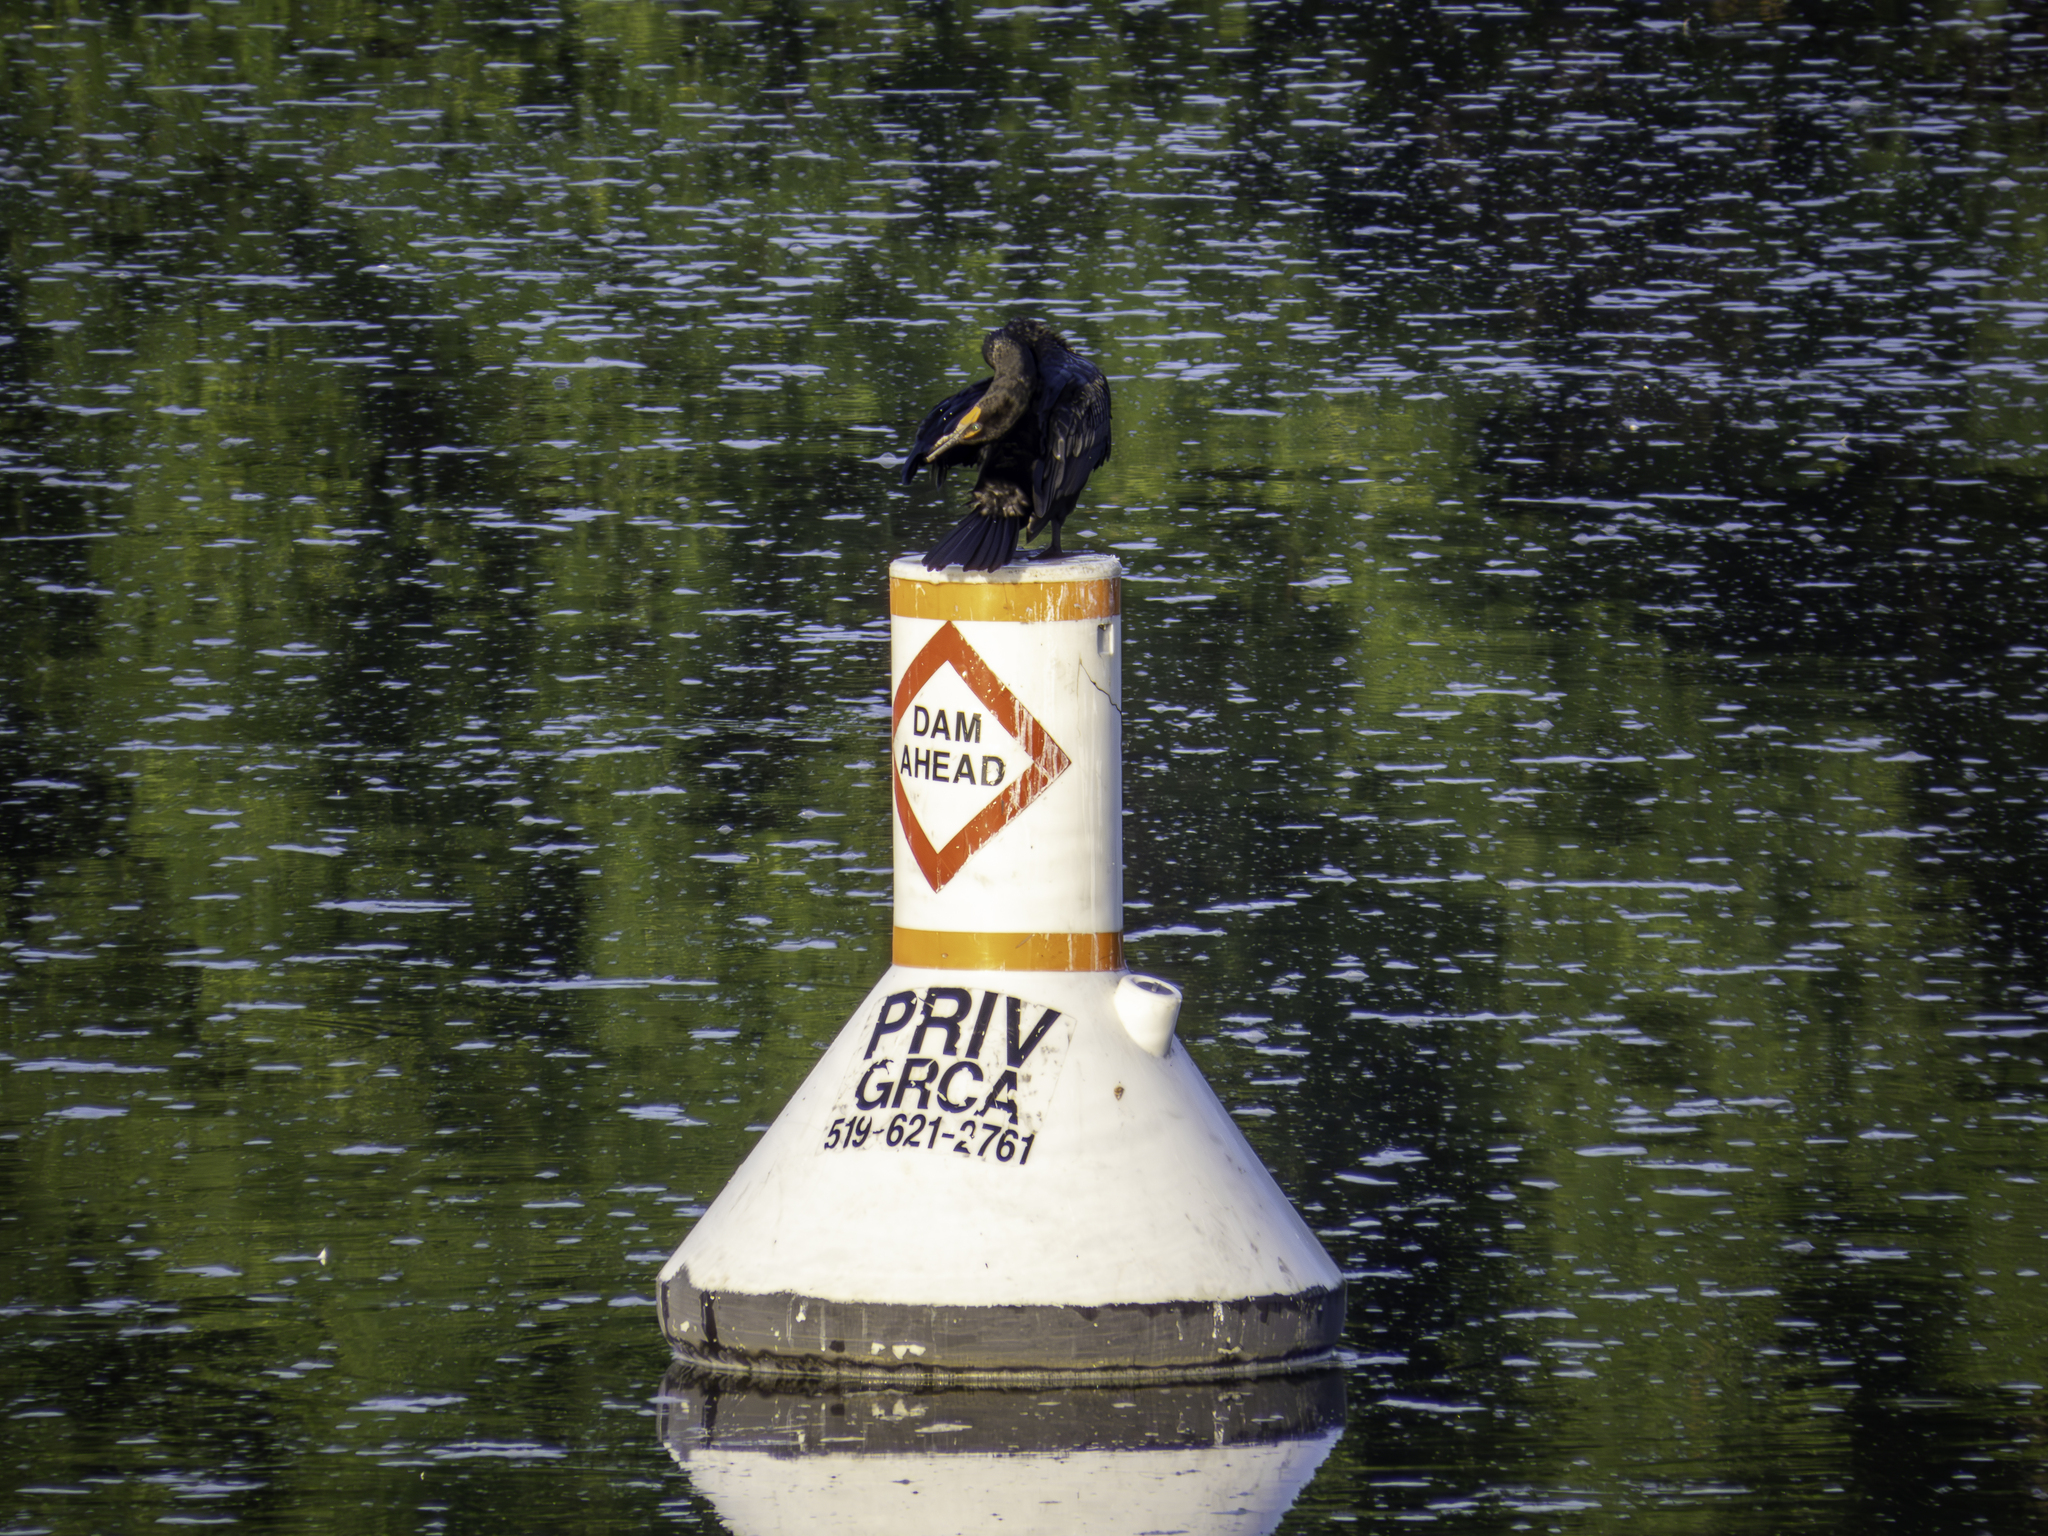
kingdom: Animalia
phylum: Chordata
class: Aves
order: Suliformes
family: Phalacrocoracidae
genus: Phalacrocorax
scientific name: Phalacrocorax auritus
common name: Double-crested cormorant
